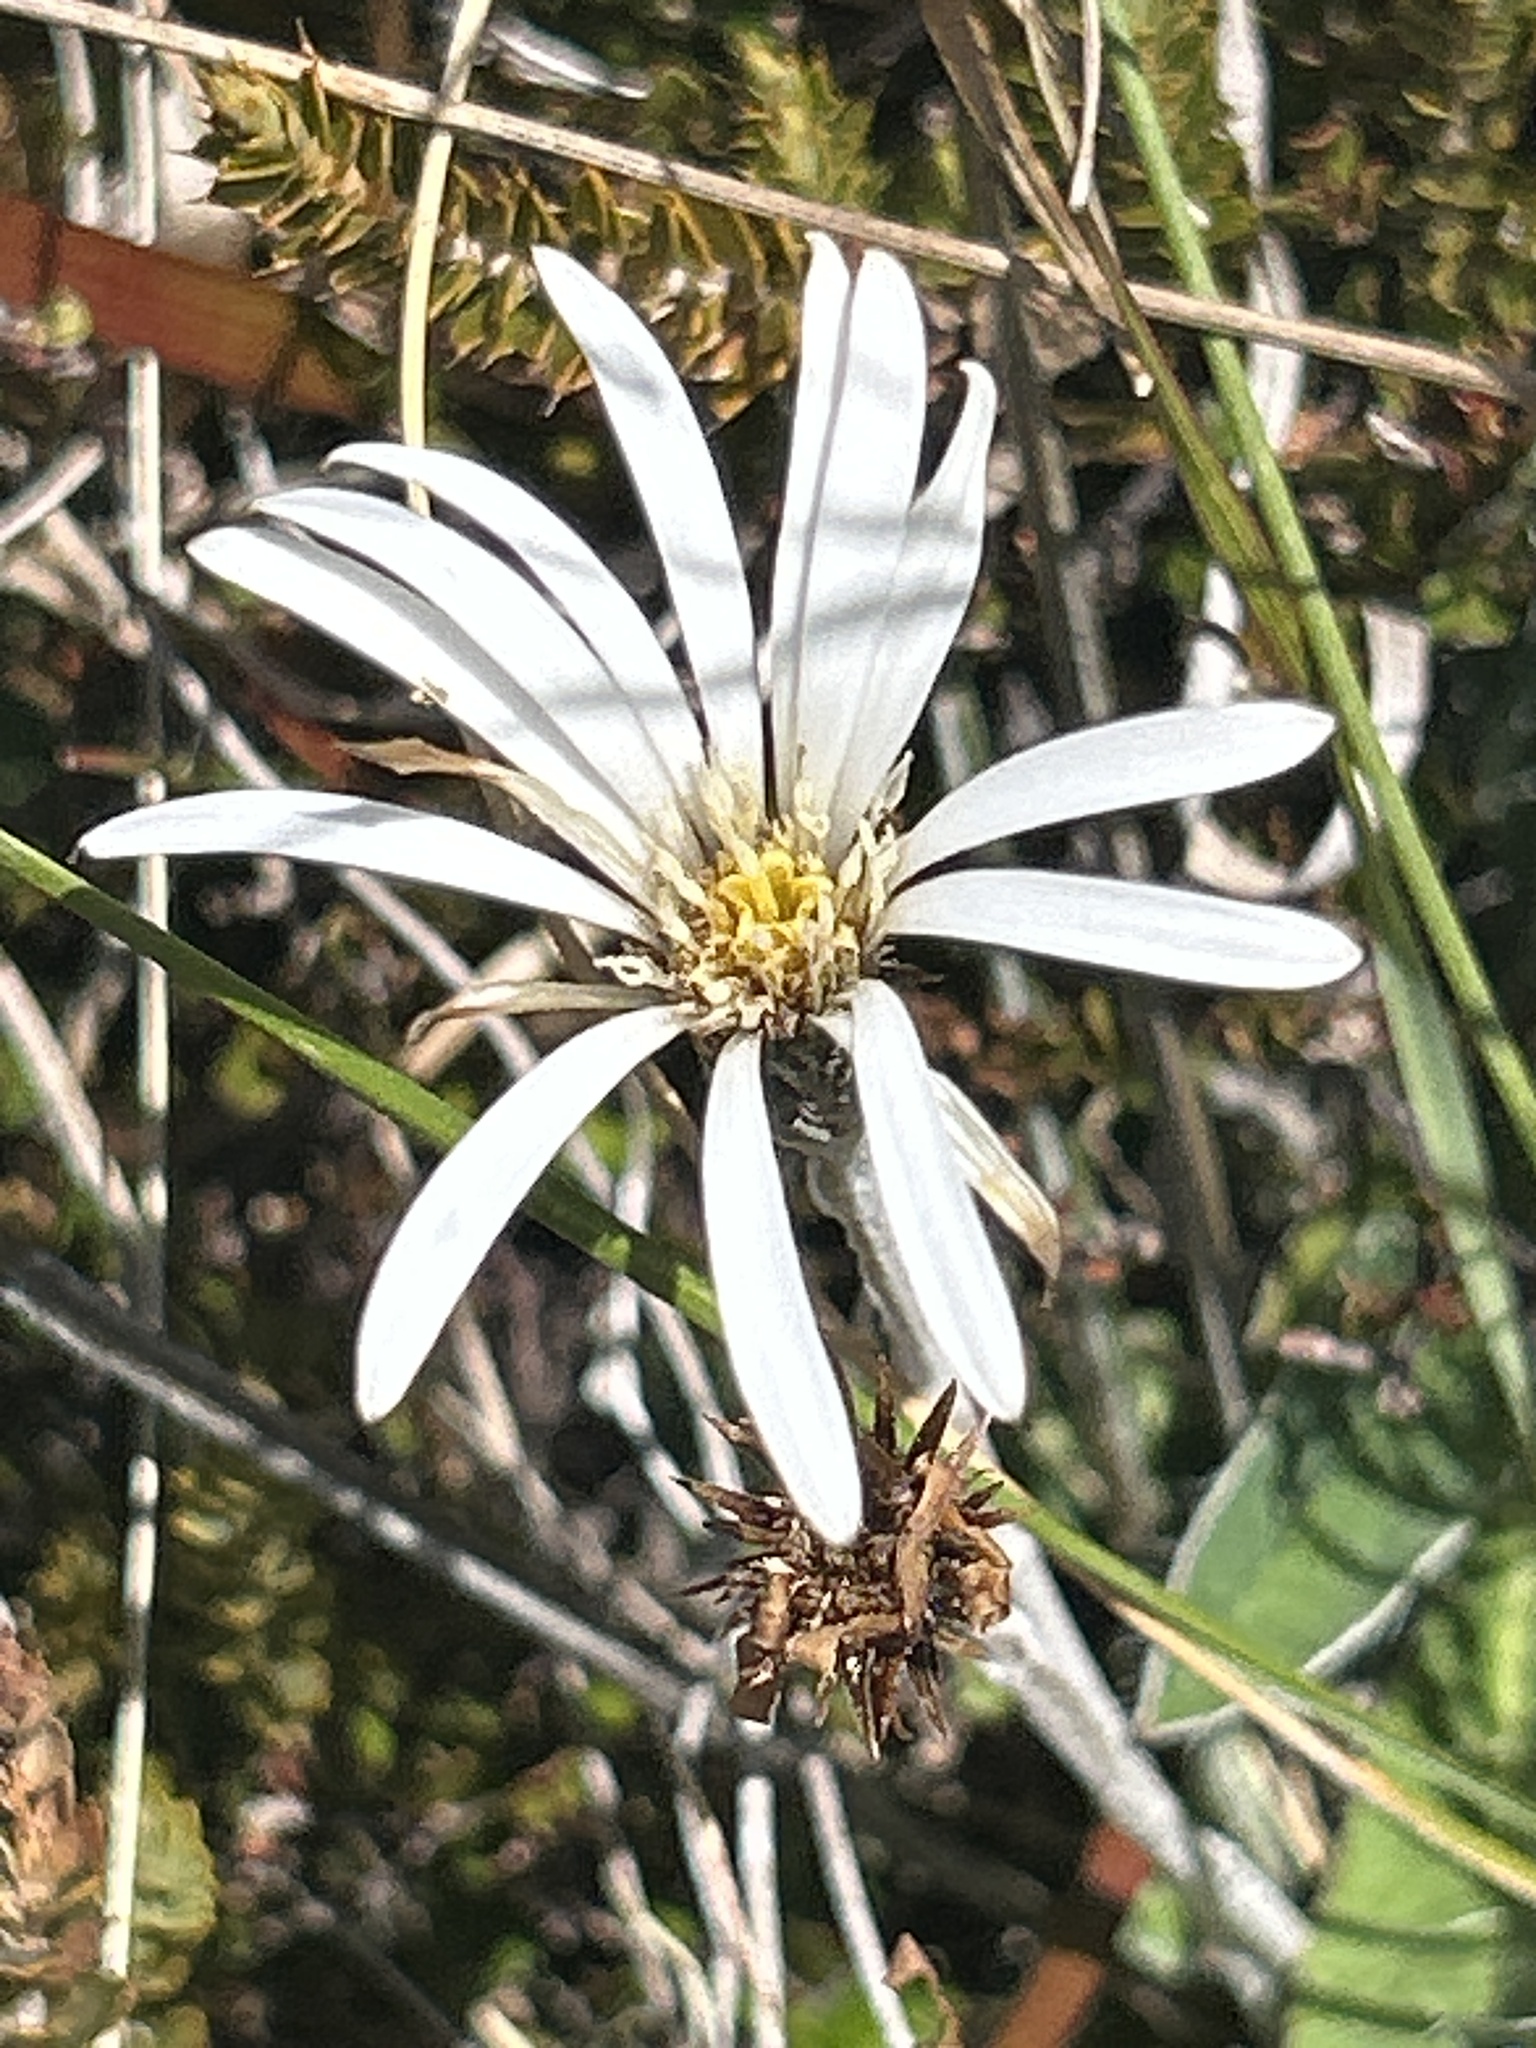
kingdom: Plantae
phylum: Tracheophyta
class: Magnoliopsida
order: Asterales
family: Asteraceae
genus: Celmisia
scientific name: Celmisia gracilenta
